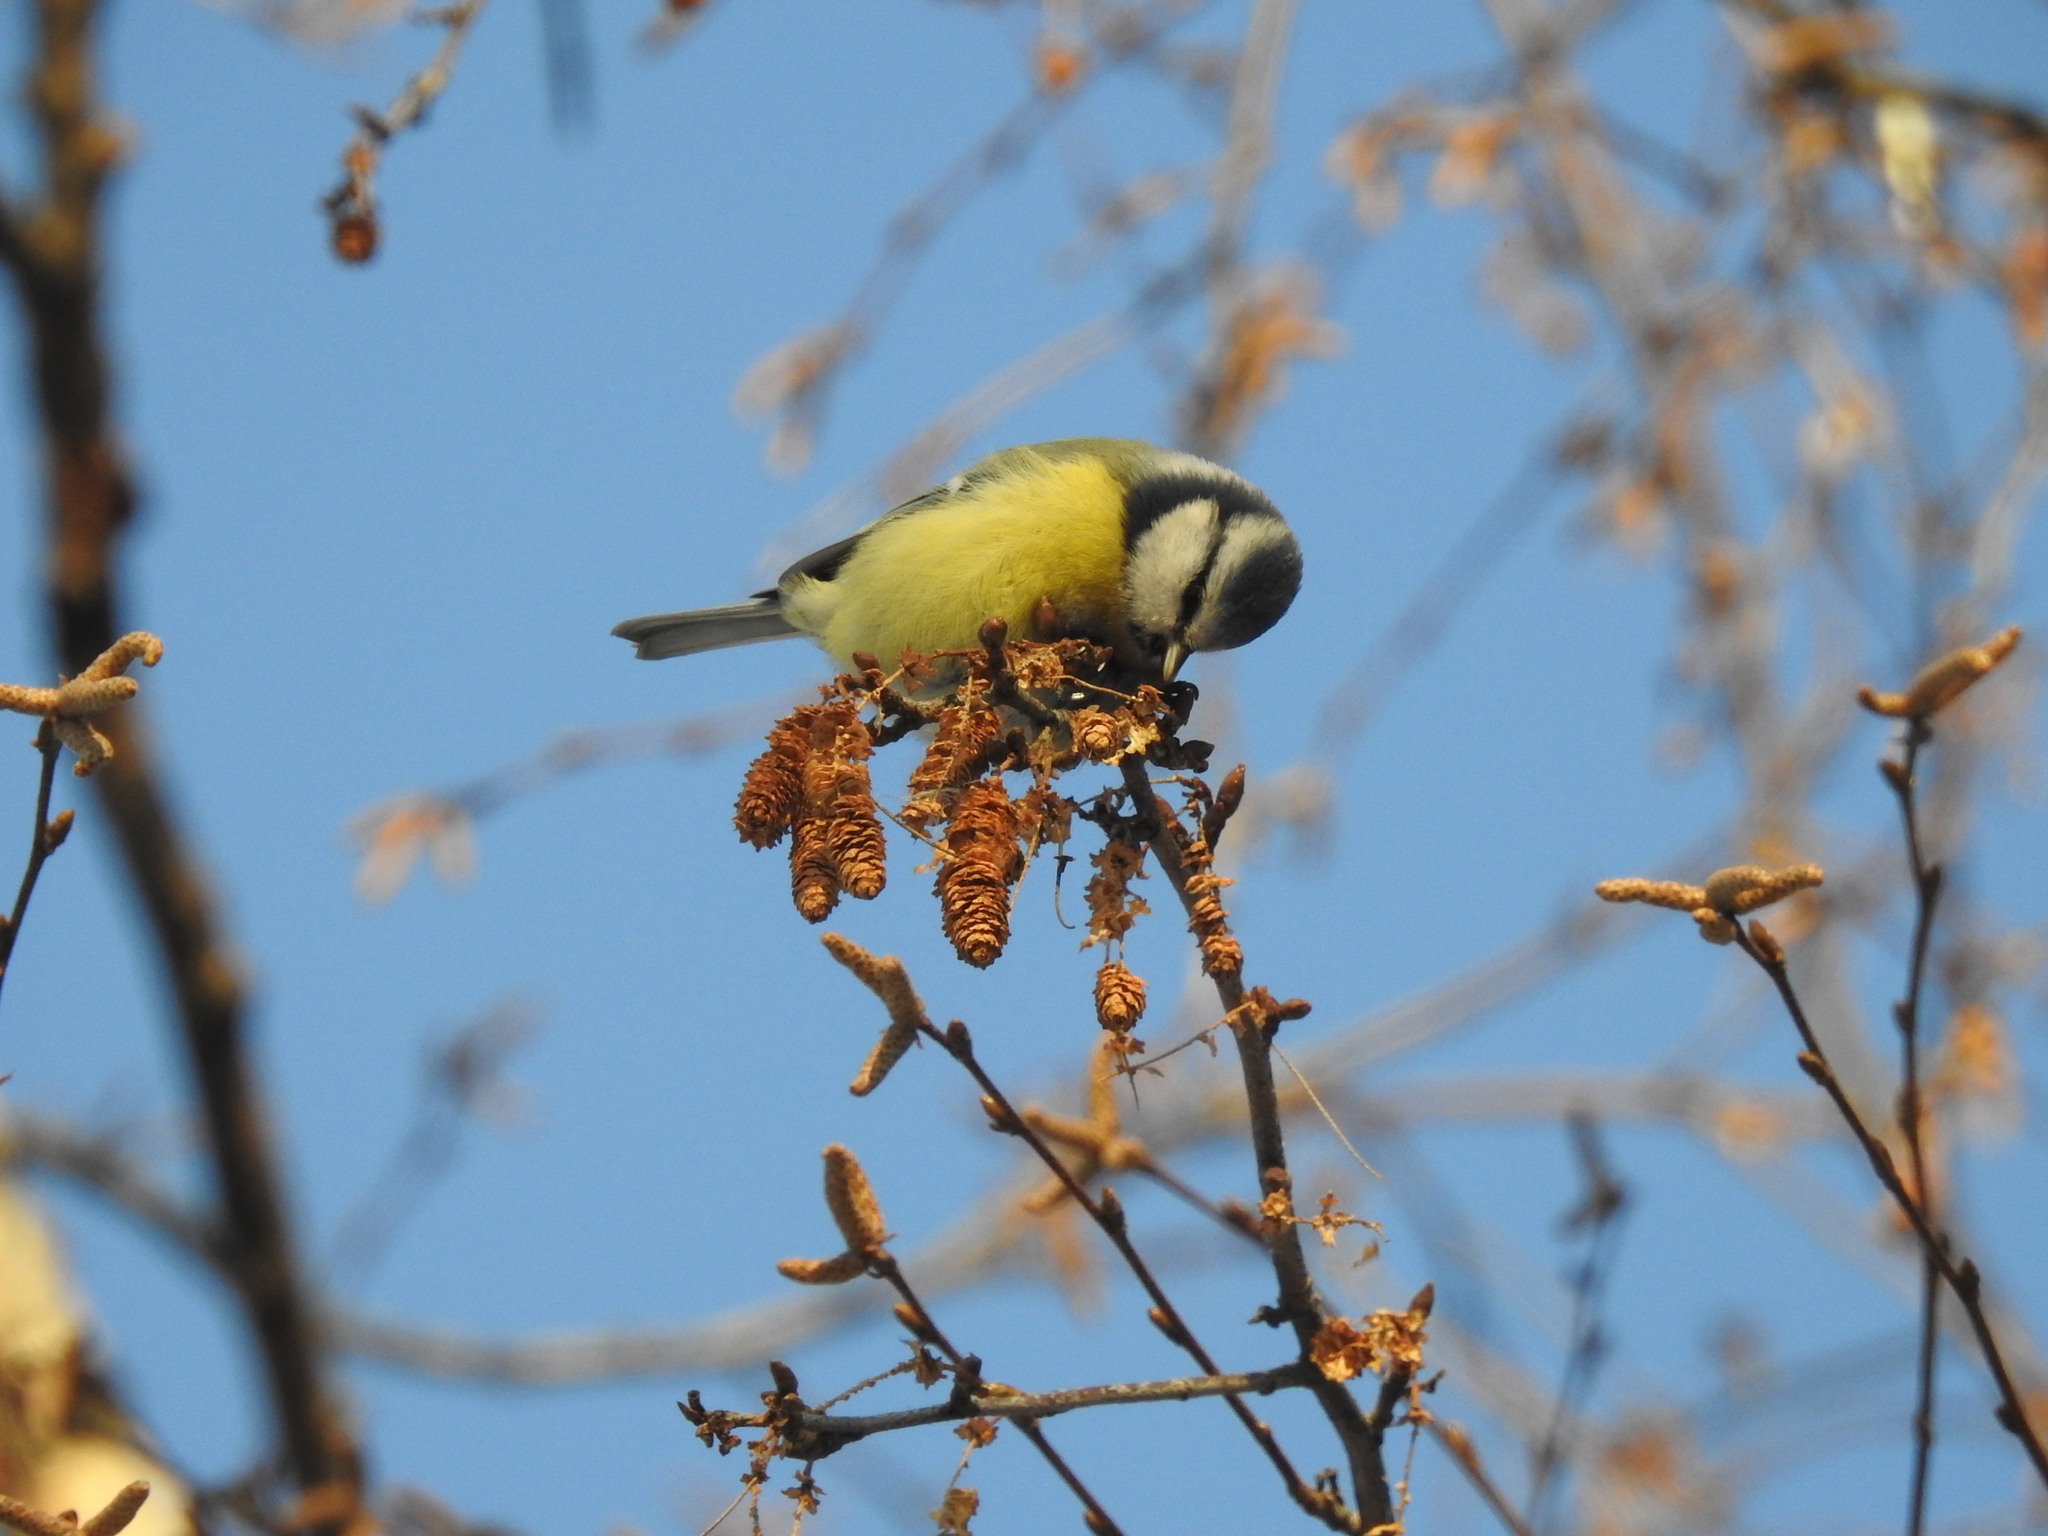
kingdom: Animalia
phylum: Chordata
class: Aves
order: Passeriformes
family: Paridae
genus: Cyanistes
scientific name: Cyanistes caeruleus
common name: Eurasian blue tit
